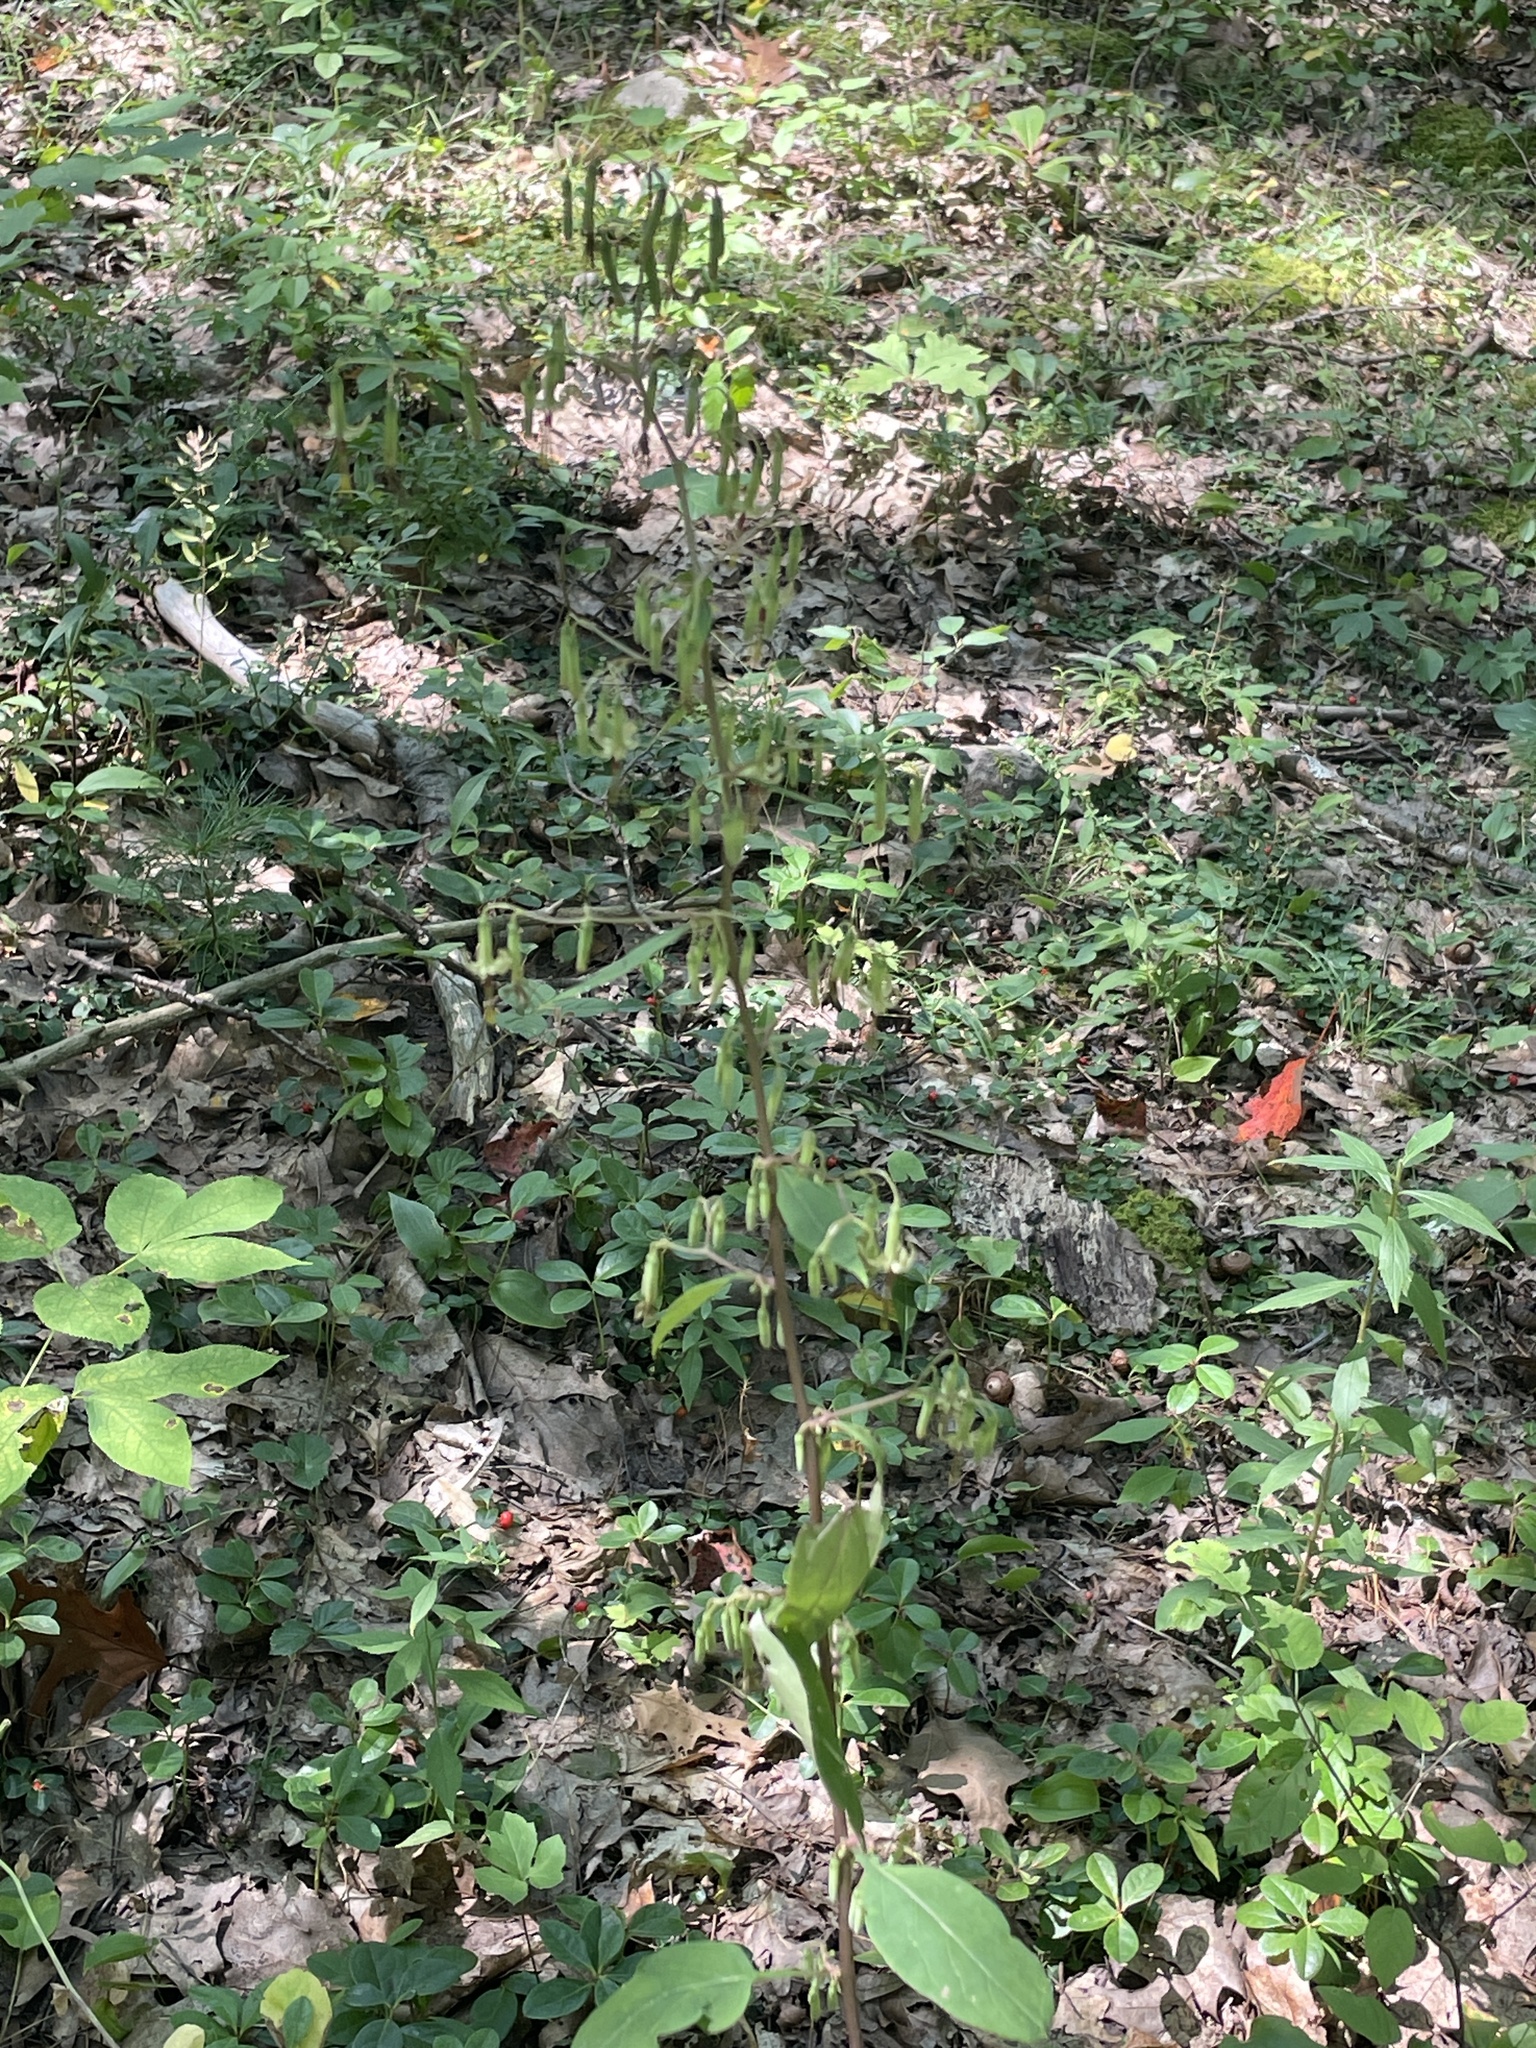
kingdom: Plantae
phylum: Tracheophyta
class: Magnoliopsida
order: Asterales
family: Asteraceae
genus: Nabalus
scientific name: Nabalus altissima
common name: Tall rattlesnakeroot
